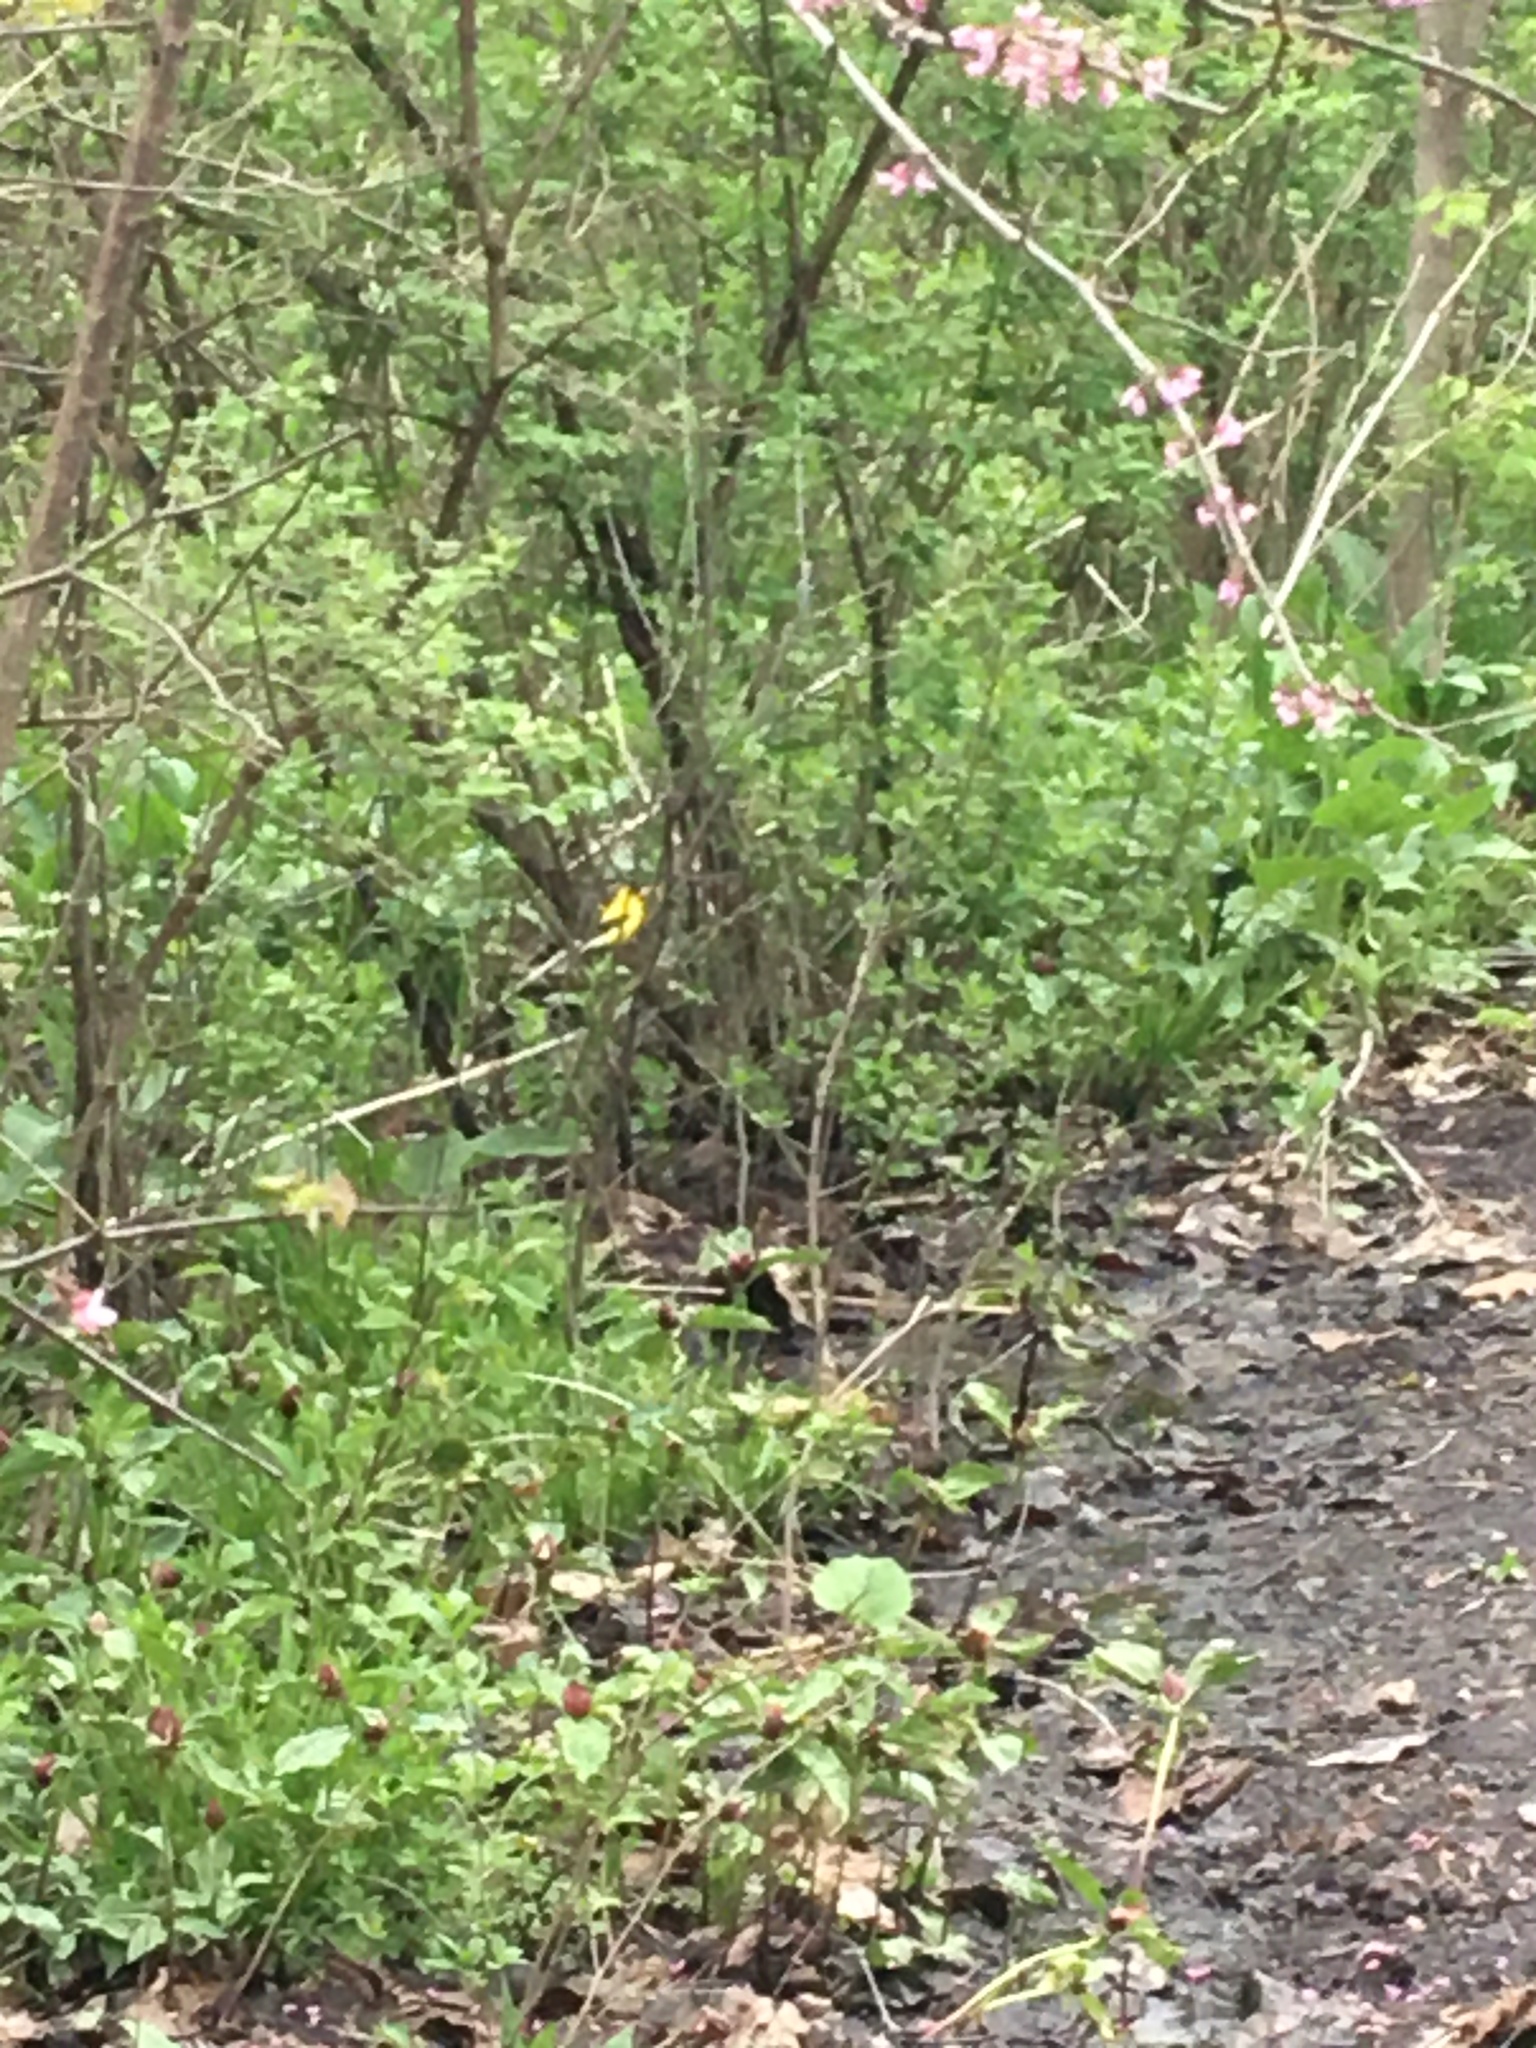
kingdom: Animalia
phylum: Chordata
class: Aves
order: Passeriformes
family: Fringillidae
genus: Spinus
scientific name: Spinus tristis
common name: American goldfinch
